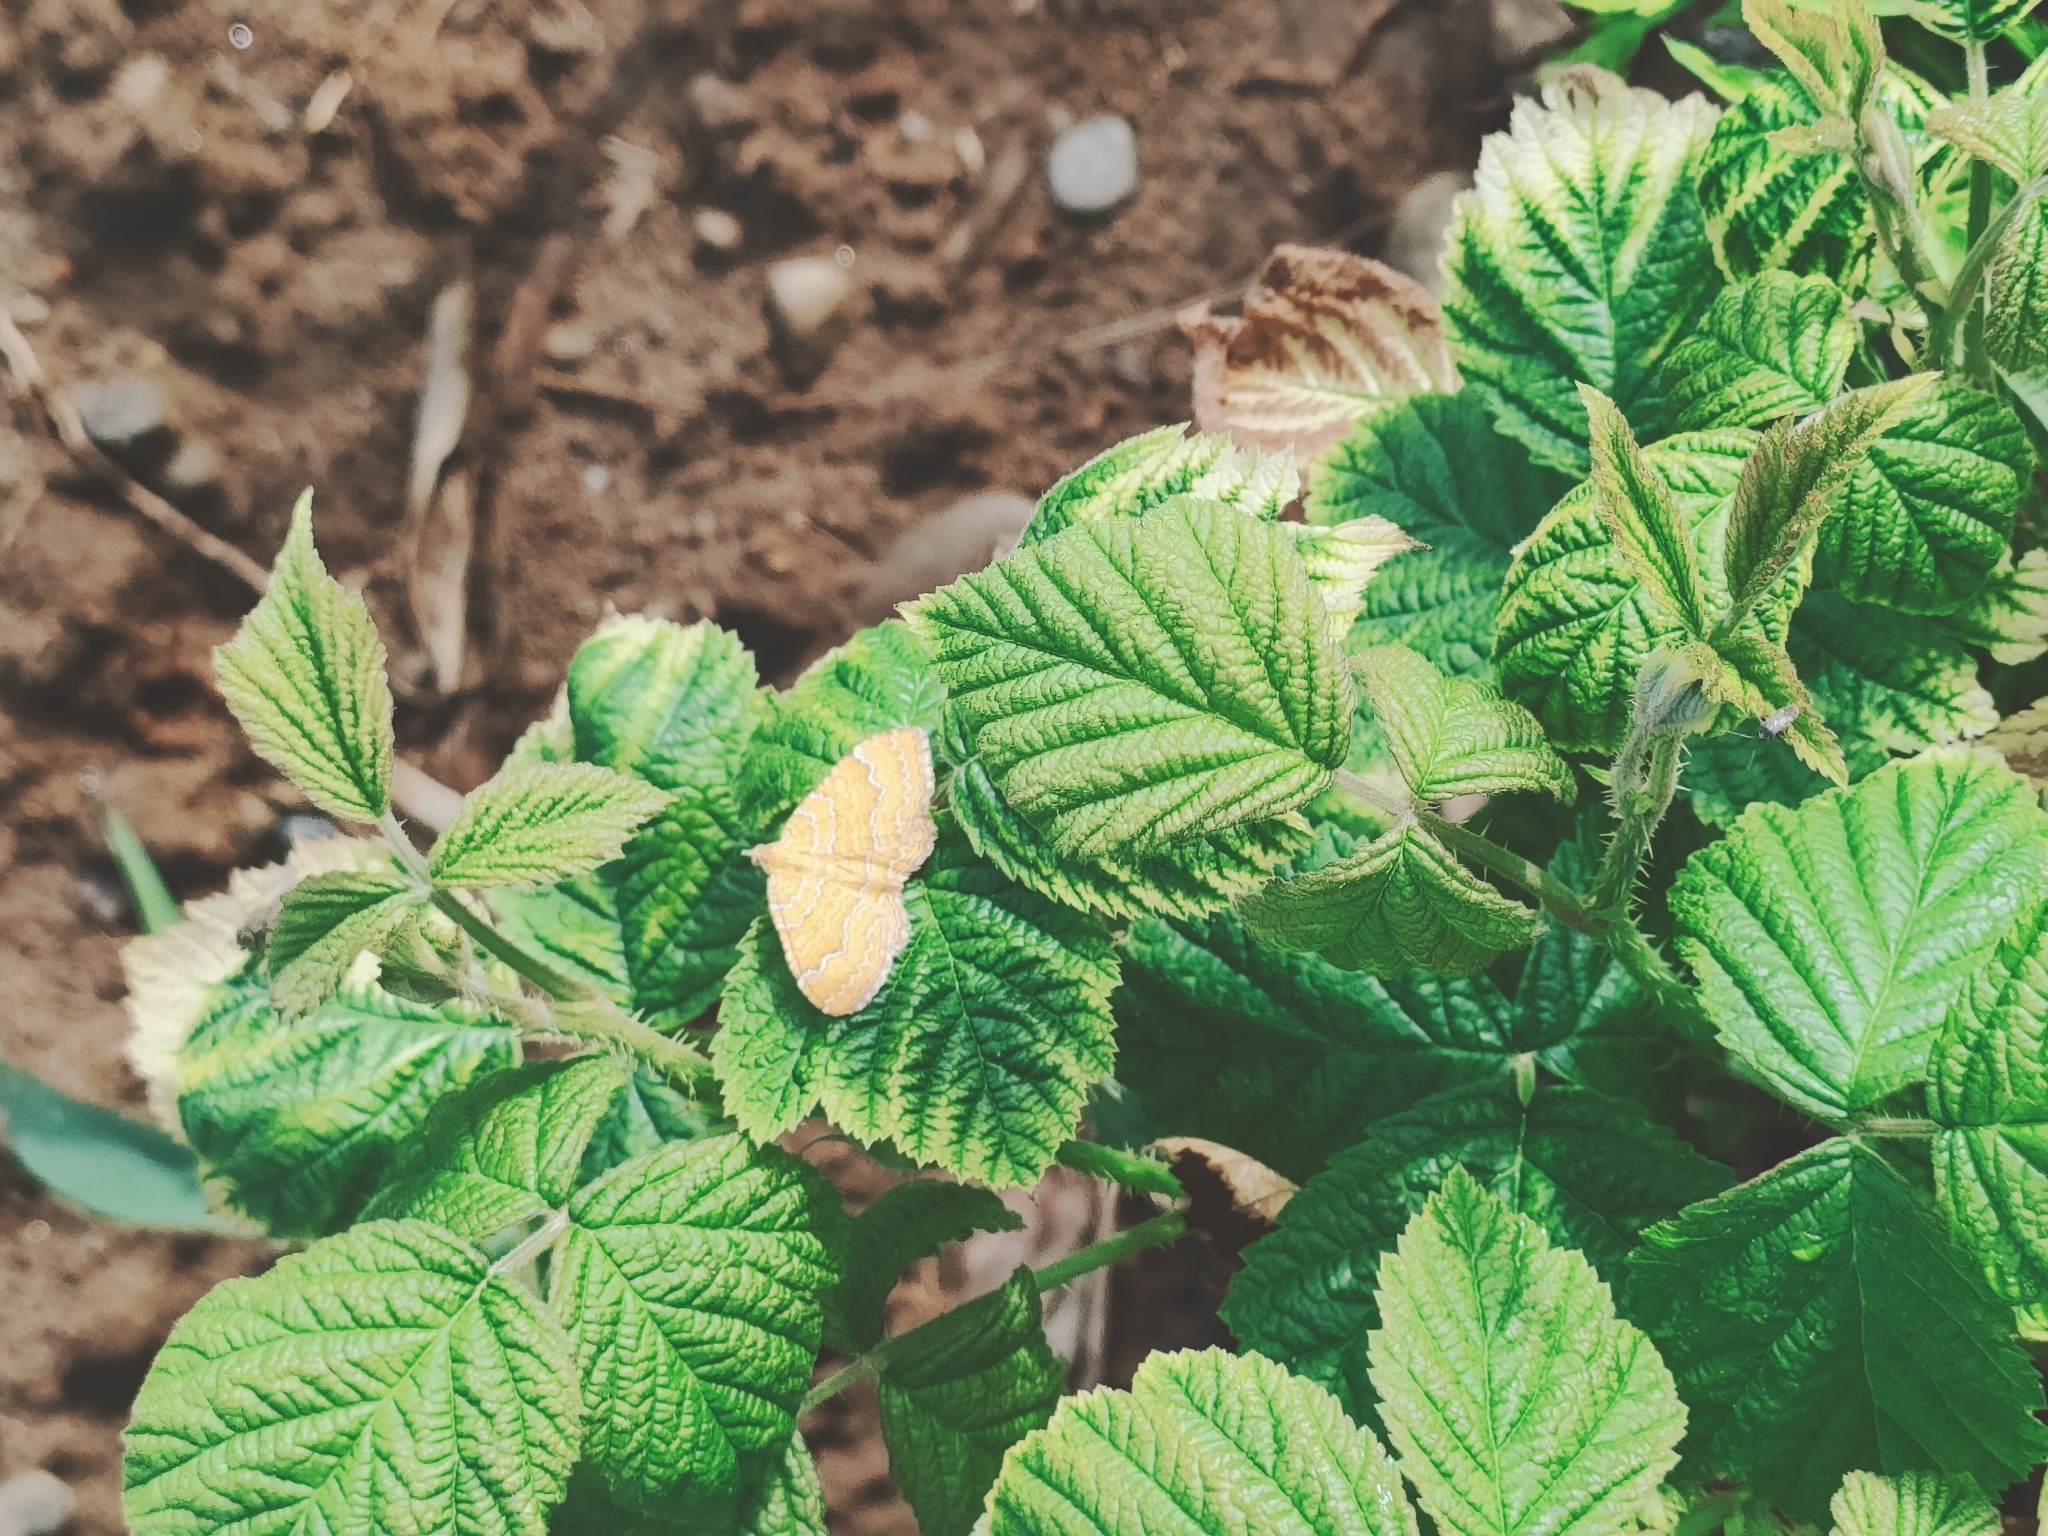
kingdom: Animalia
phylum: Arthropoda
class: Insecta
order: Lepidoptera
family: Geometridae
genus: Camptogramma
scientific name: Camptogramma bilineata
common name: Yellow shell
